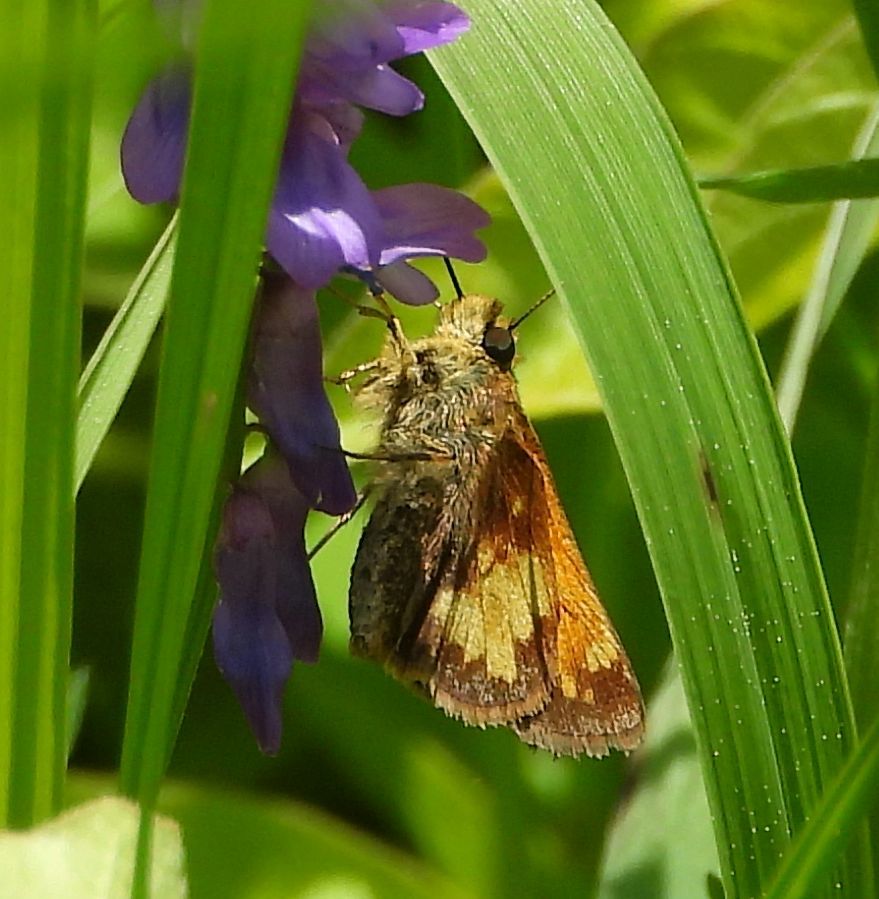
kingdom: Animalia
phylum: Arthropoda
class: Insecta
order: Lepidoptera
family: Hesperiidae
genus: Lon
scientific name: Lon hobomok
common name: Hobomok skipper
